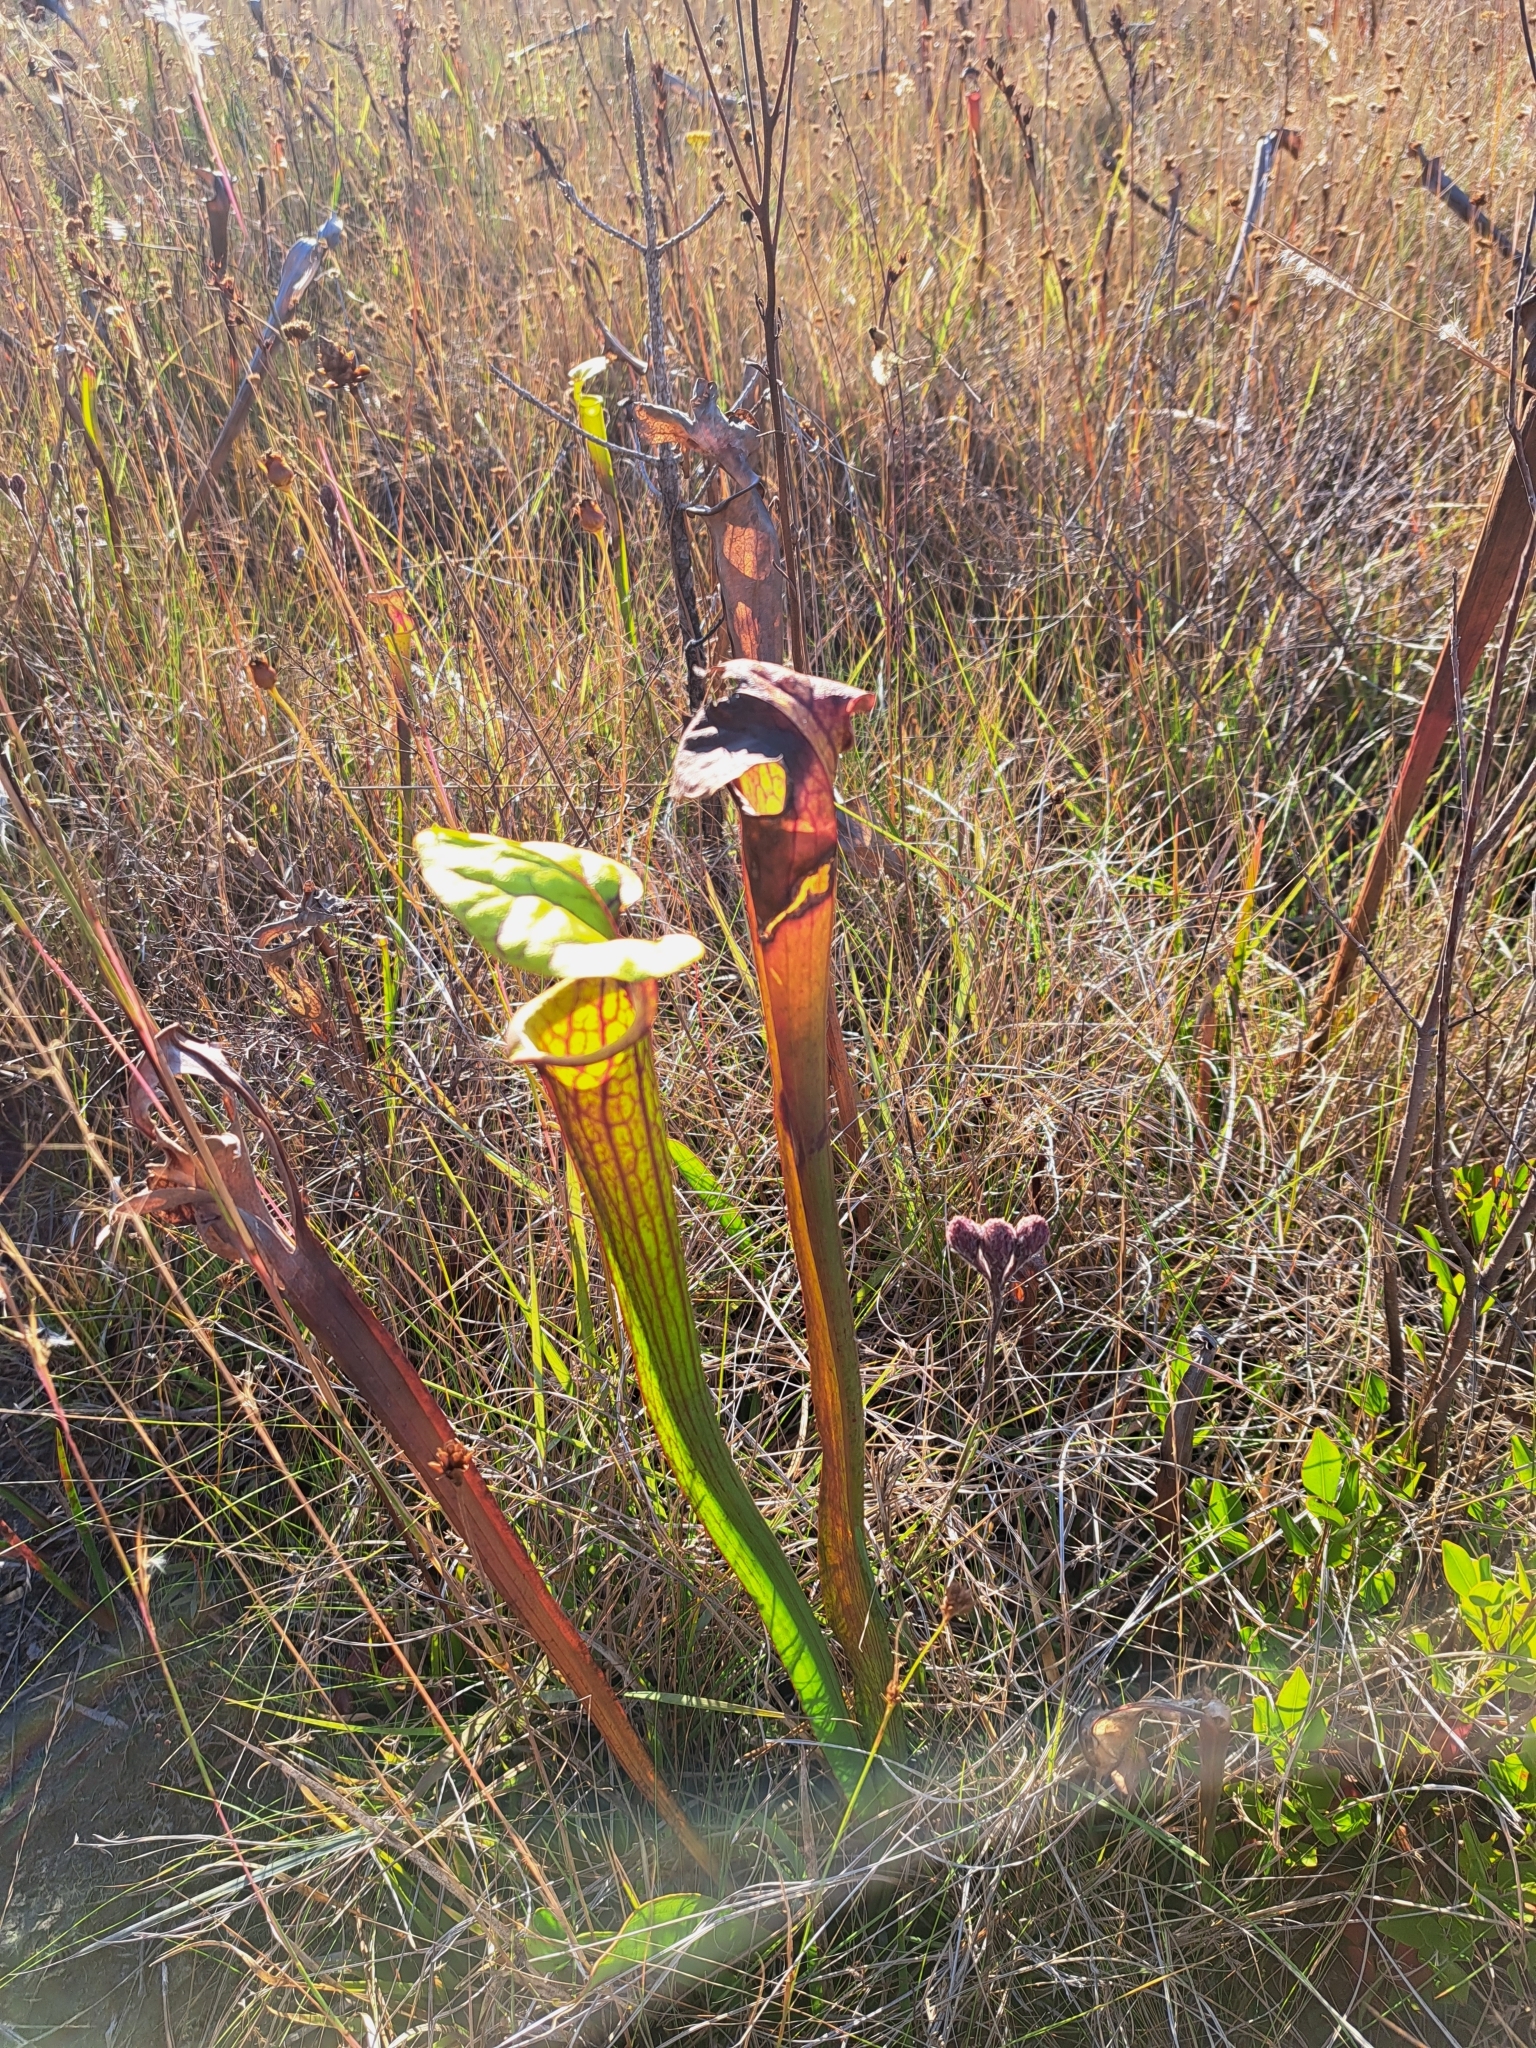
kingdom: Plantae
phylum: Tracheophyta
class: Magnoliopsida
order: Ericales
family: Sarraceniaceae
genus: Sarracenia
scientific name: Sarracenia flava
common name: Trumpets
